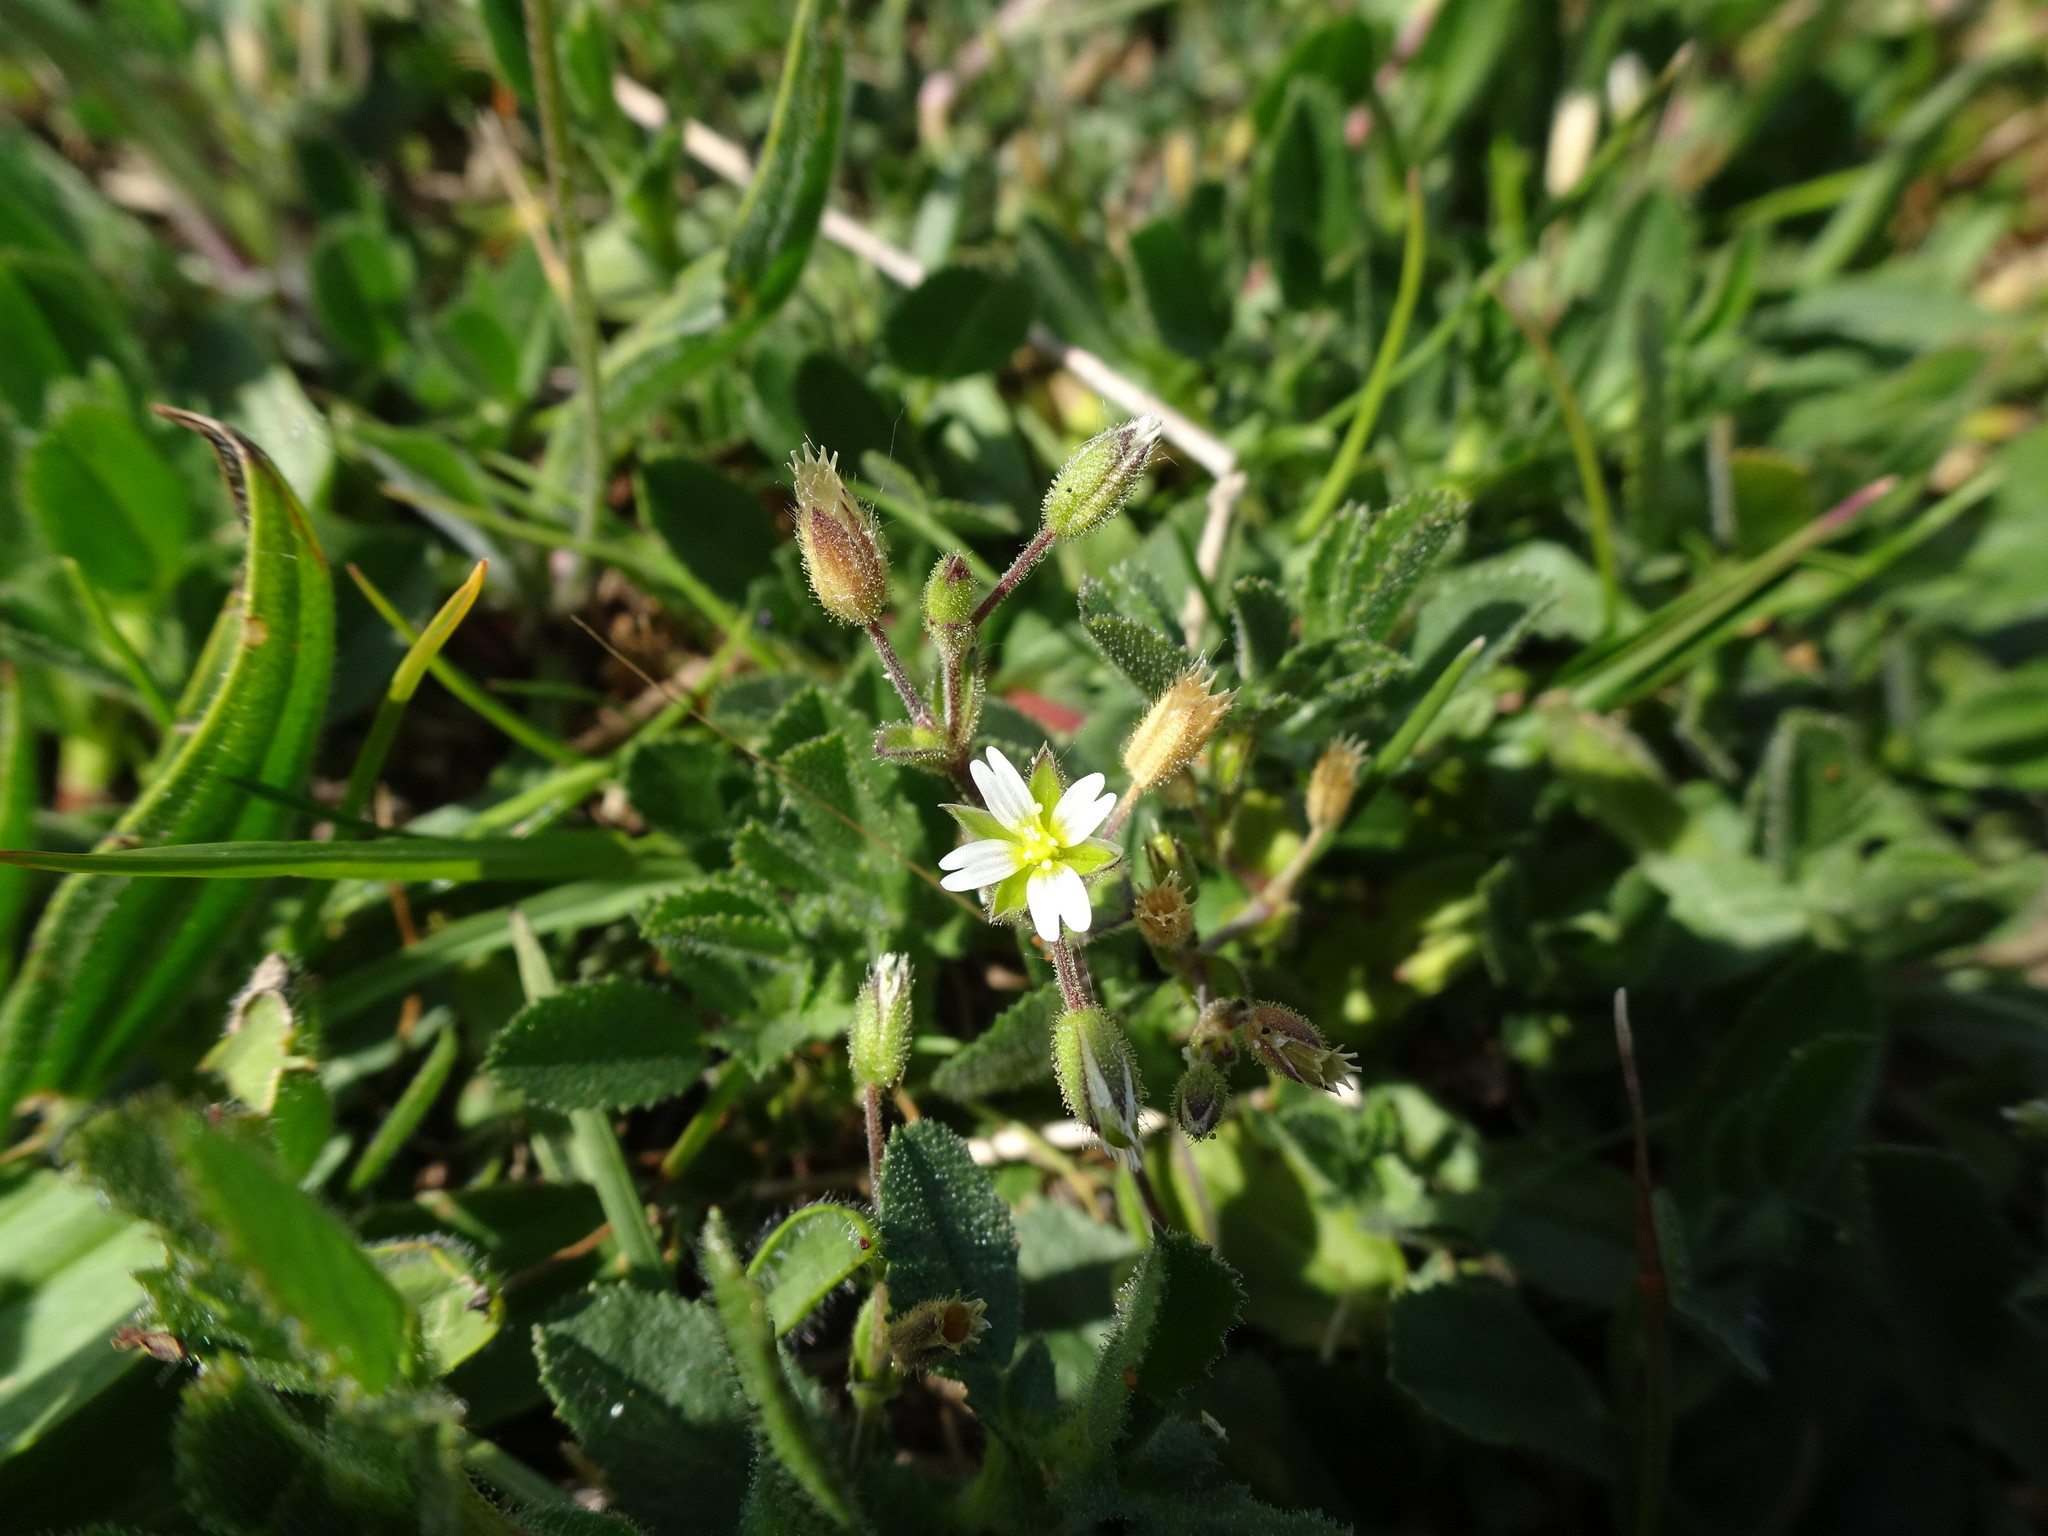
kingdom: Plantae
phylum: Tracheophyta
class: Magnoliopsida
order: Caryophyllales
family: Caryophyllaceae
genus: Cerastium
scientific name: Cerastium diffusum
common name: Fourstamen chickweed
